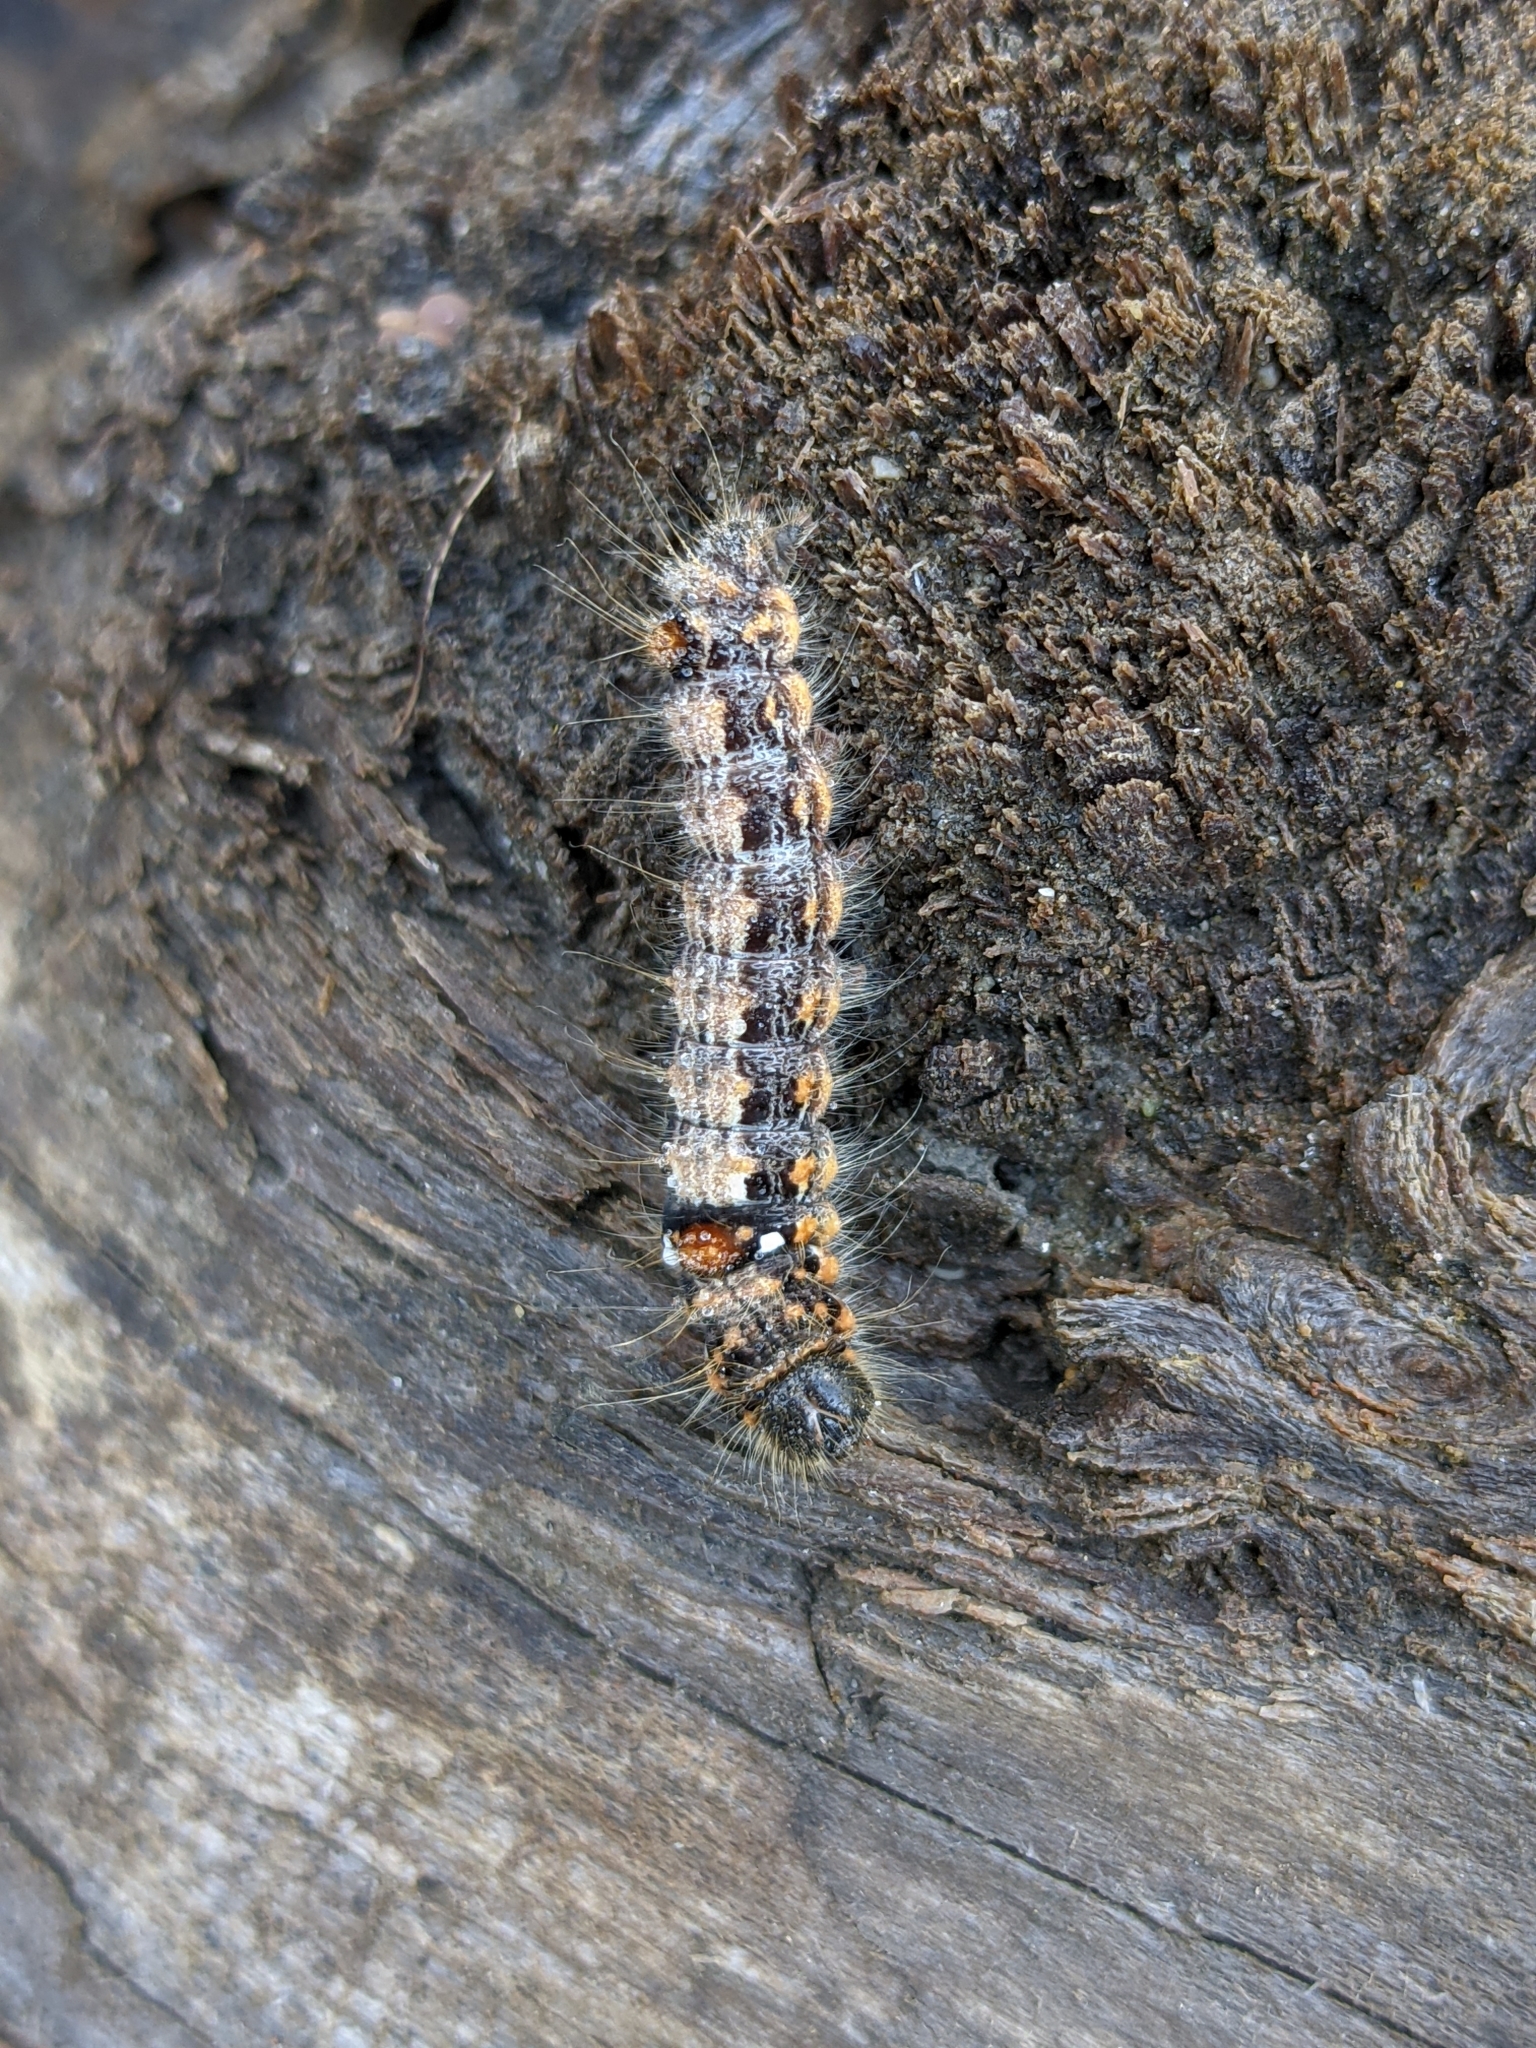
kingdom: Animalia
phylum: Arthropoda
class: Insecta
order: Lepidoptera
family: Notodontidae
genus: Clostera
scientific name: Clostera anachoreta
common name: Scarce chocolate-tip
